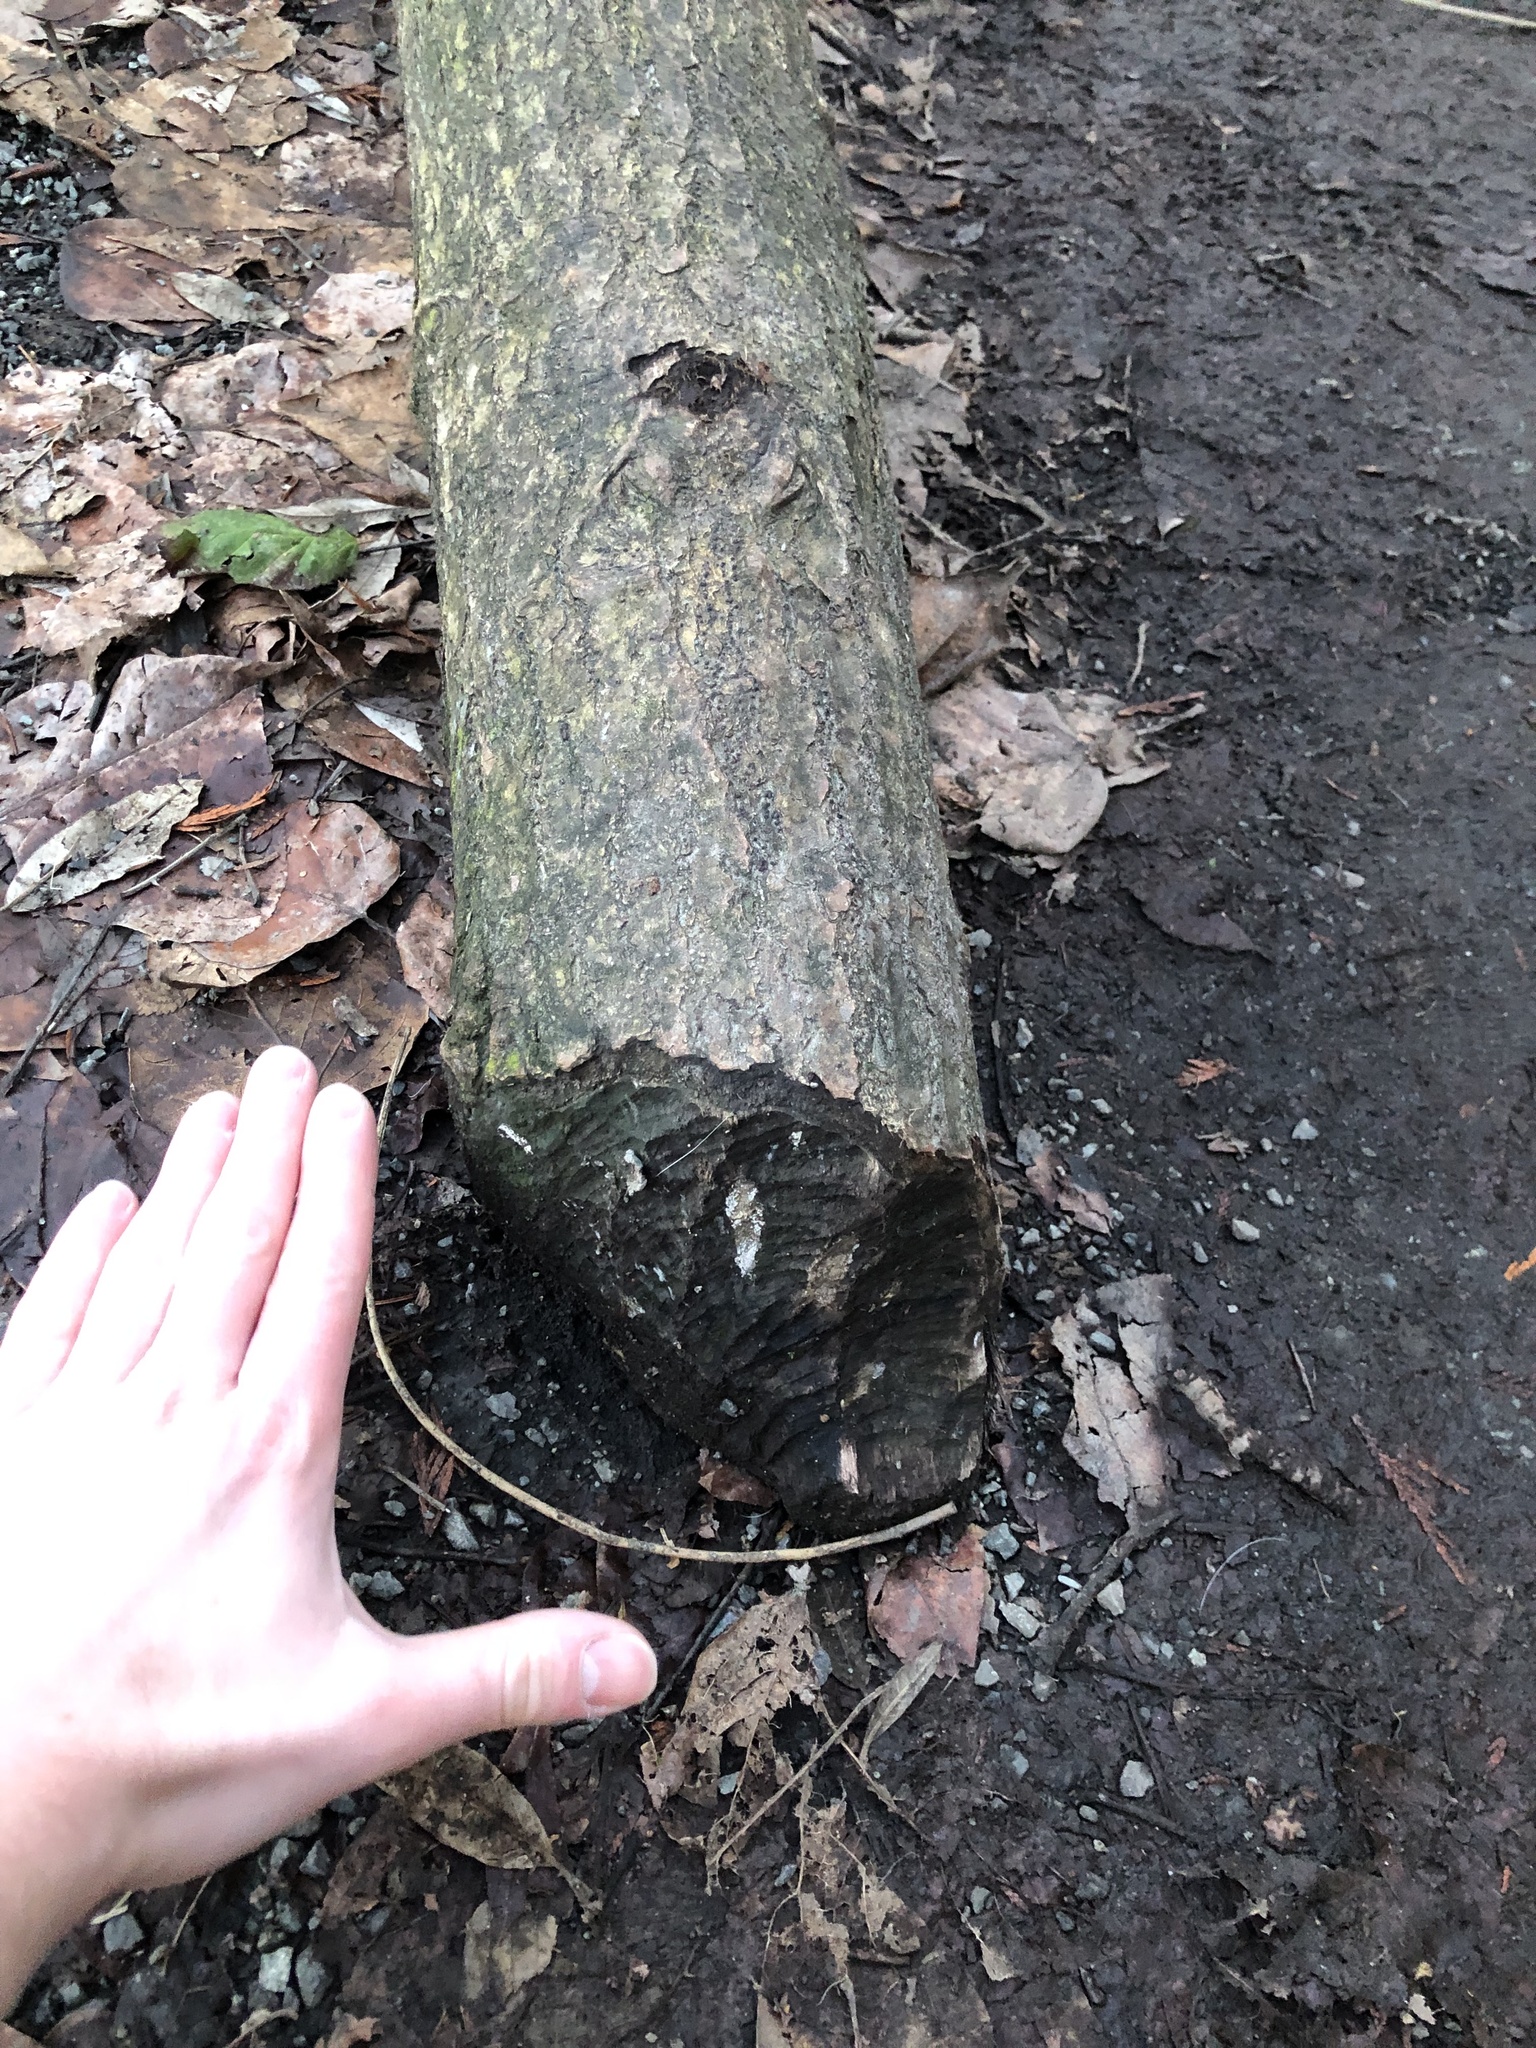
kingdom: Animalia
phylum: Chordata
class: Mammalia
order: Rodentia
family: Castoridae
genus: Castor
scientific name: Castor canadensis
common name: American beaver
